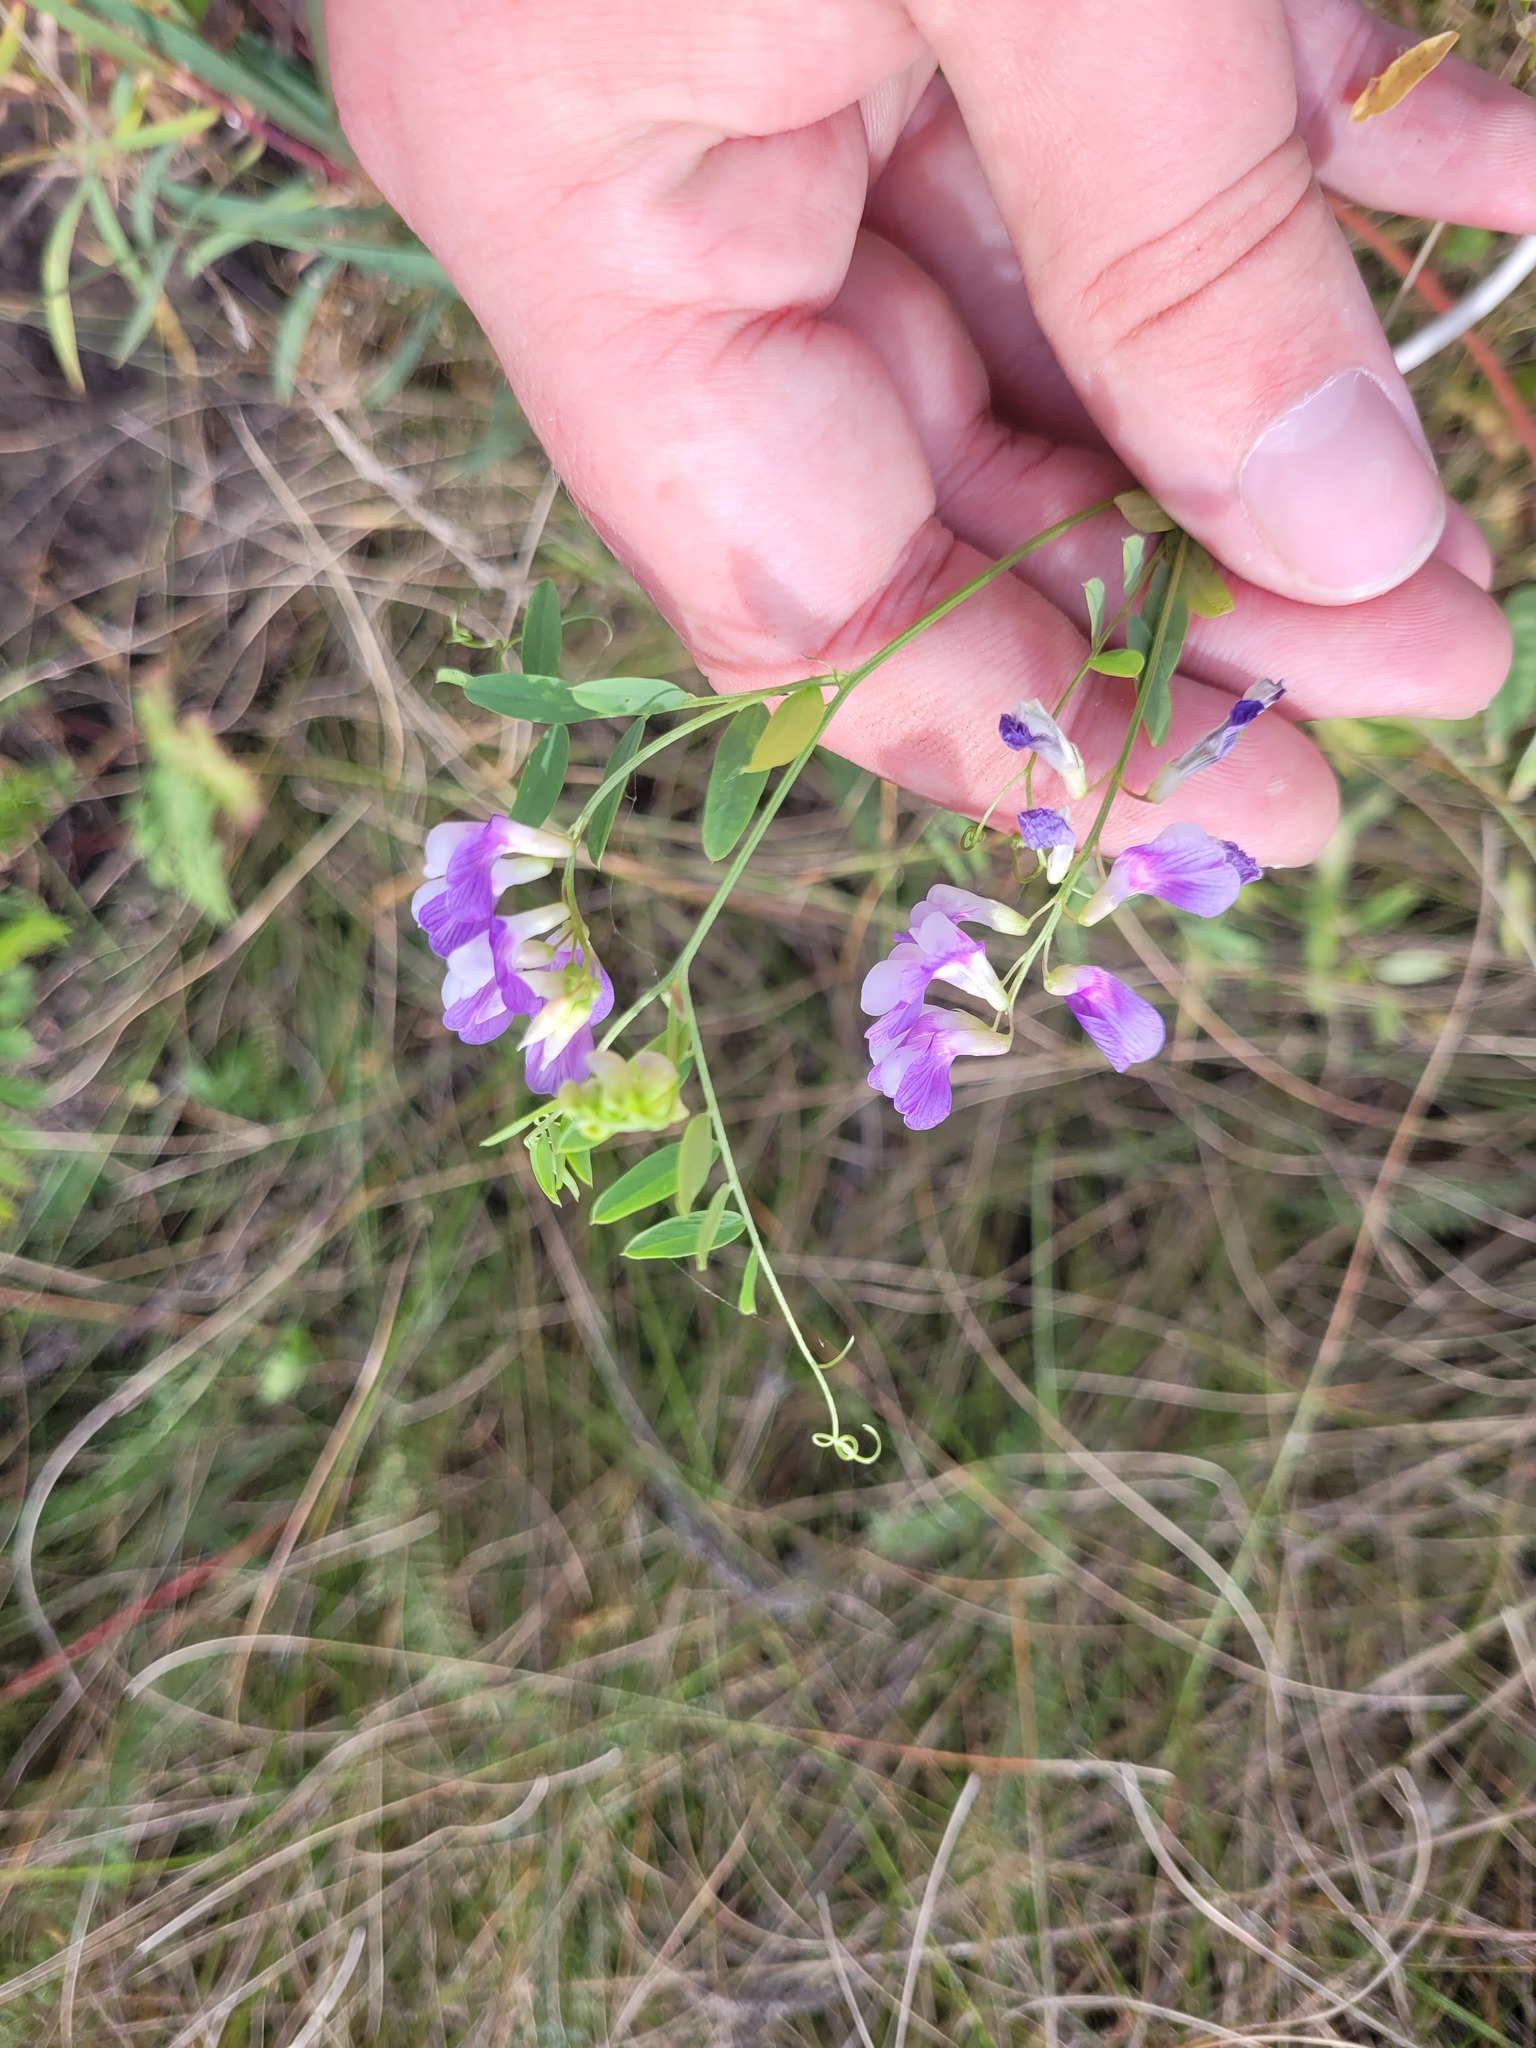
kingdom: Plantae
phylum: Tracheophyta
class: Magnoliopsida
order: Fabales
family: Fabaceae
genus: Vicia
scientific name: Vicia biennis
